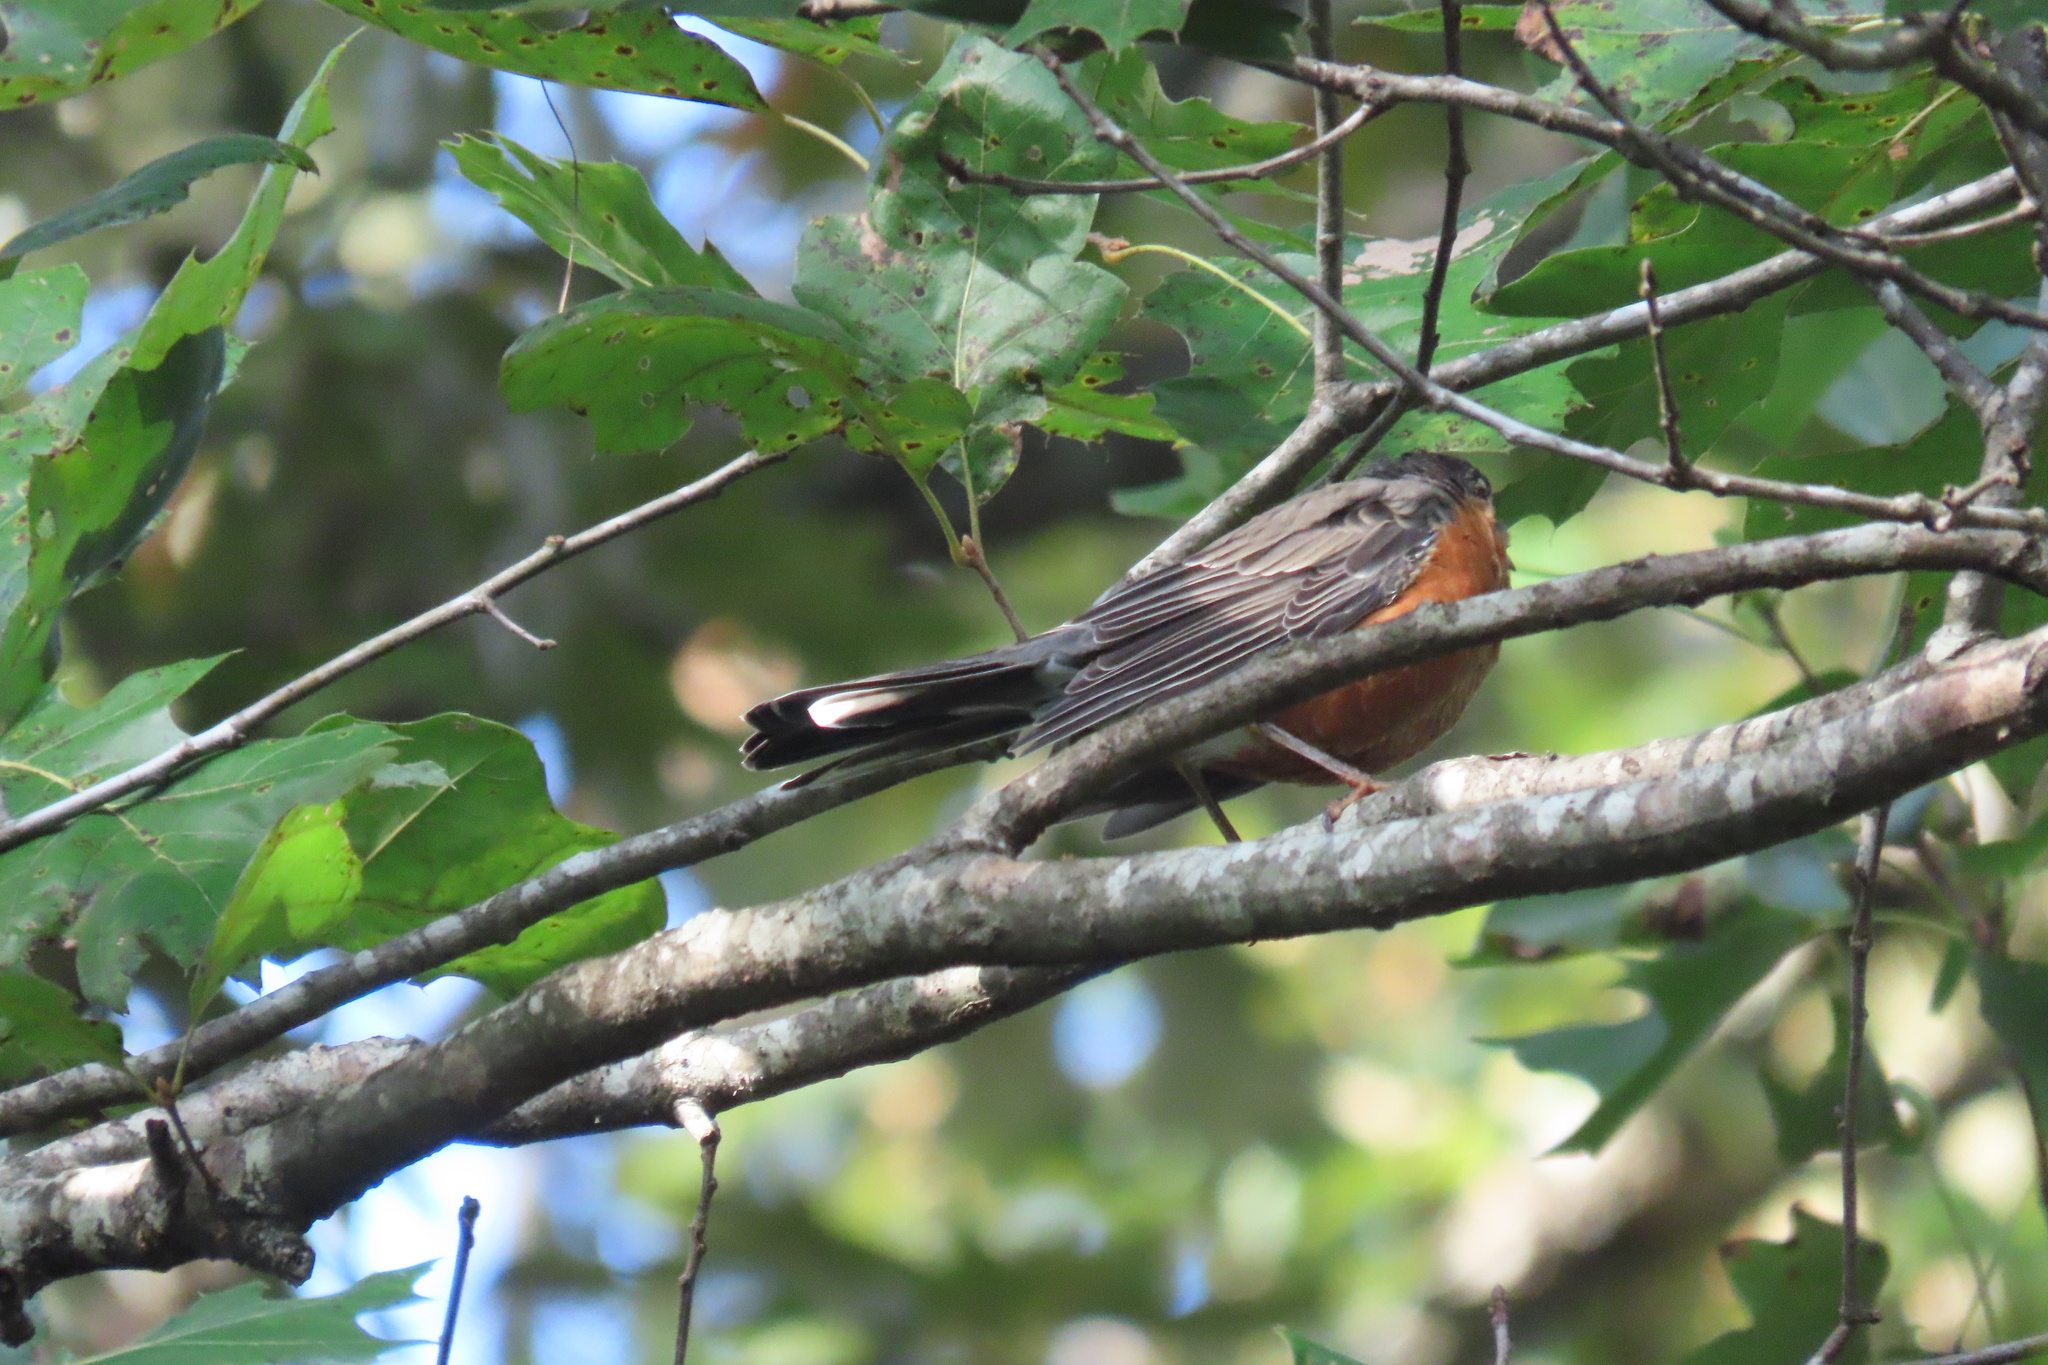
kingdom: Animalia
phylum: Chordata
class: Aves
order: Passeriformes
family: Turdidae
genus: Turdus
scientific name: Turdus migratorius
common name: American robin
